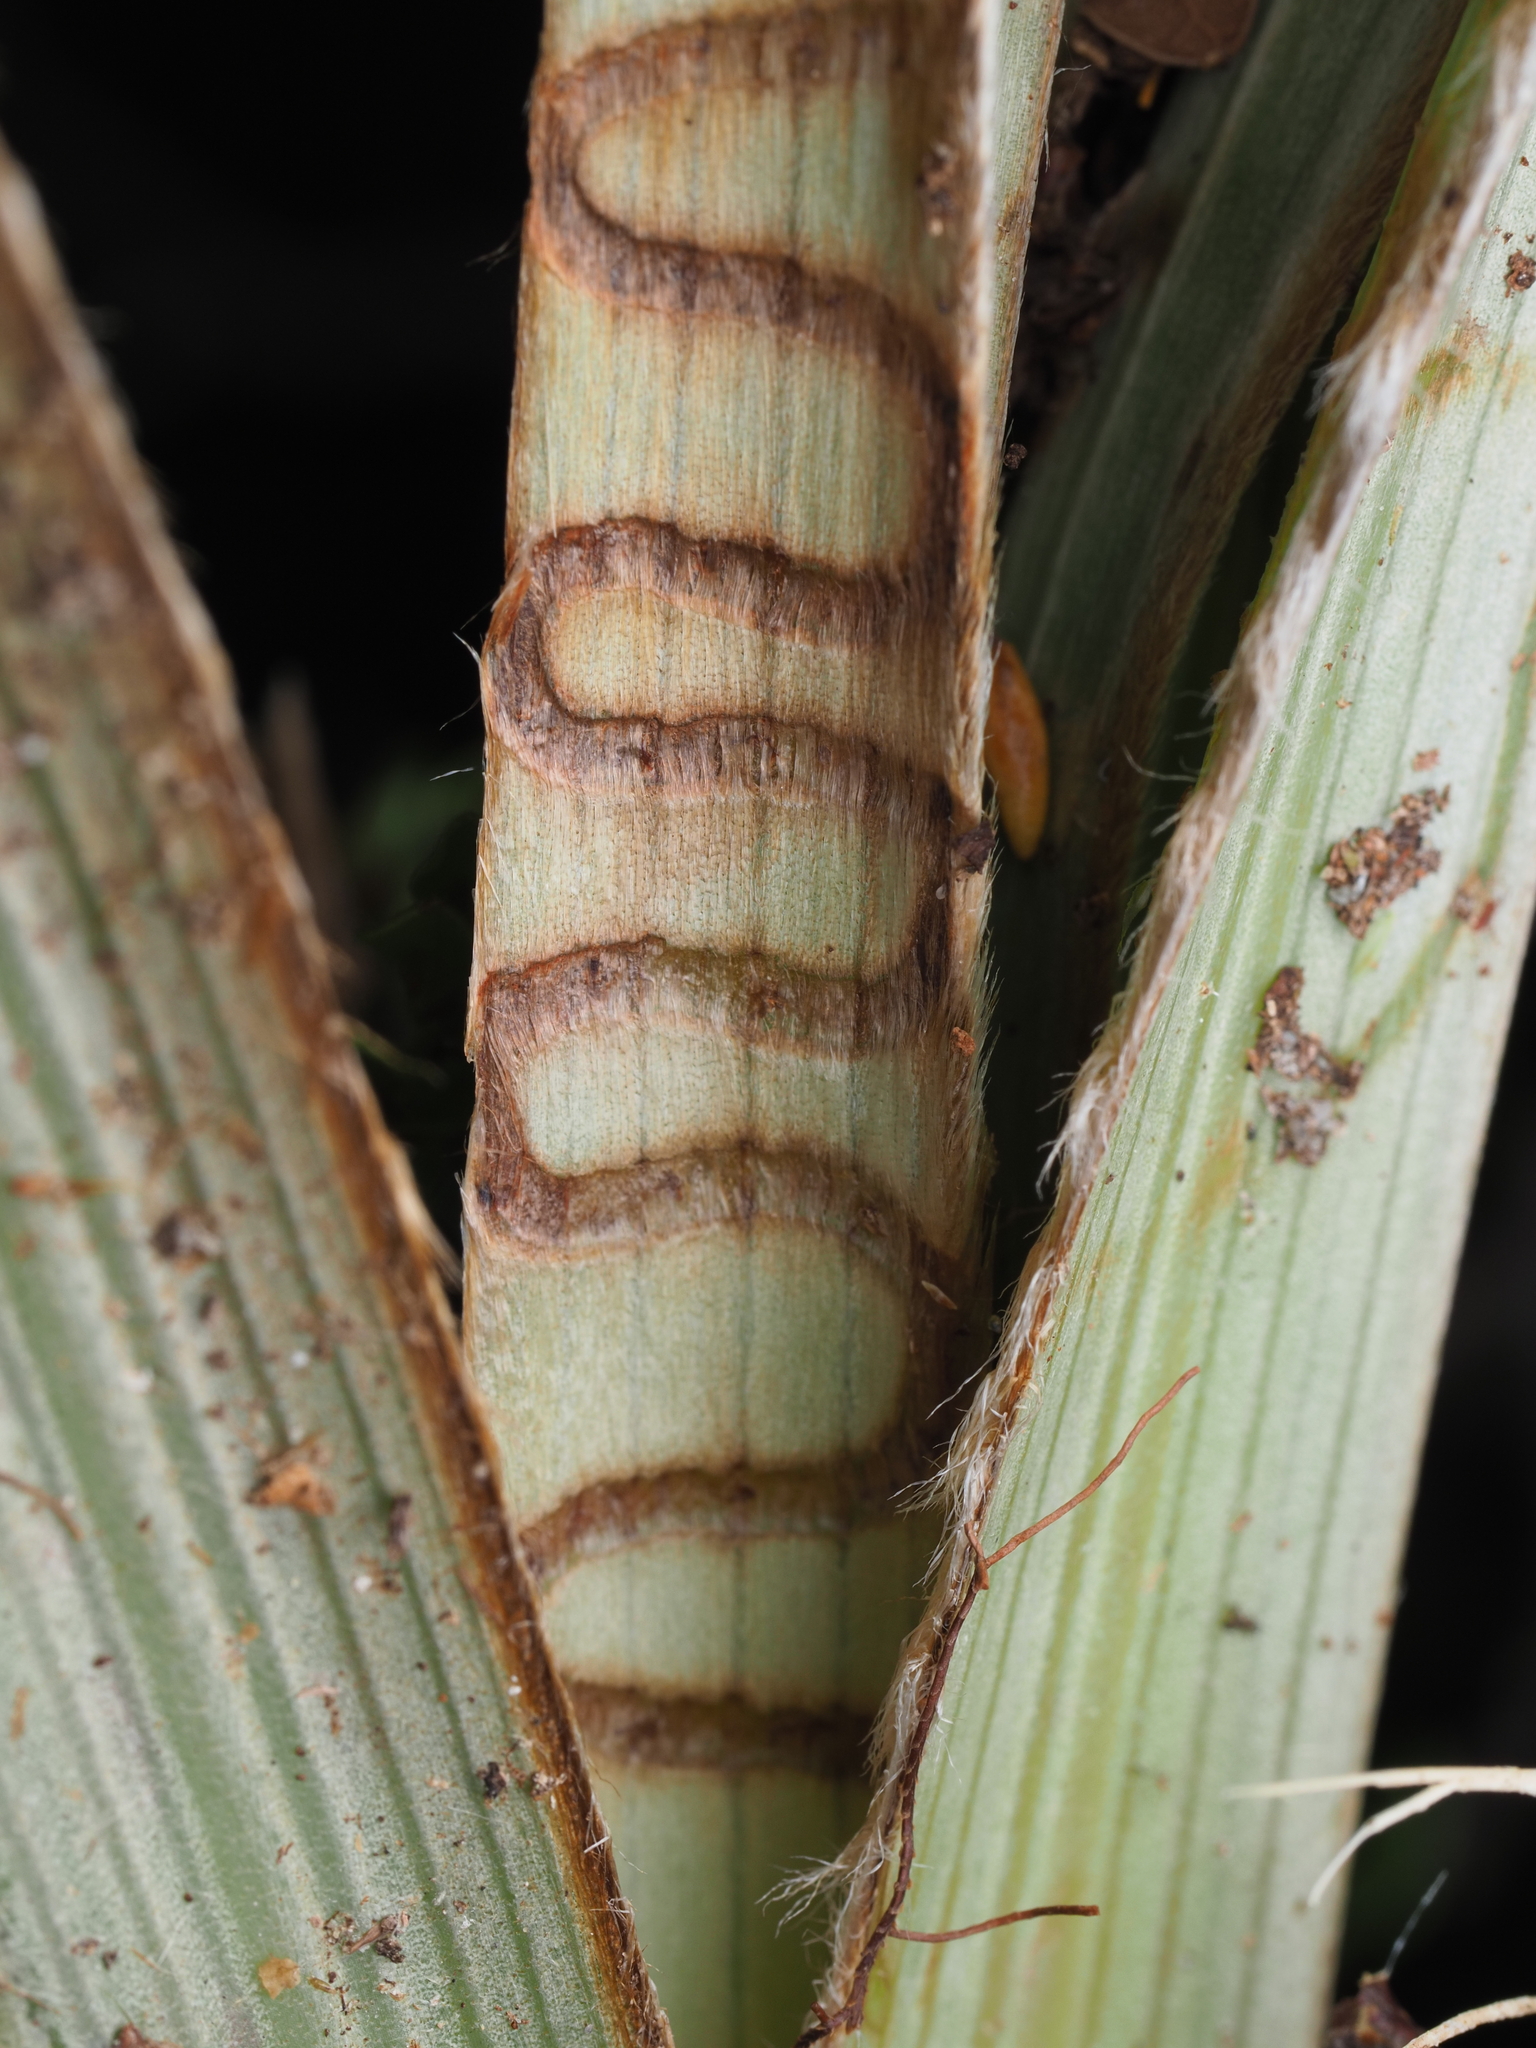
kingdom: Animalia
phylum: Arthropoda
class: Insecta
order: Lepidoptera
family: Plutellidae
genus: Charixena
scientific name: Charixena iridoxa
